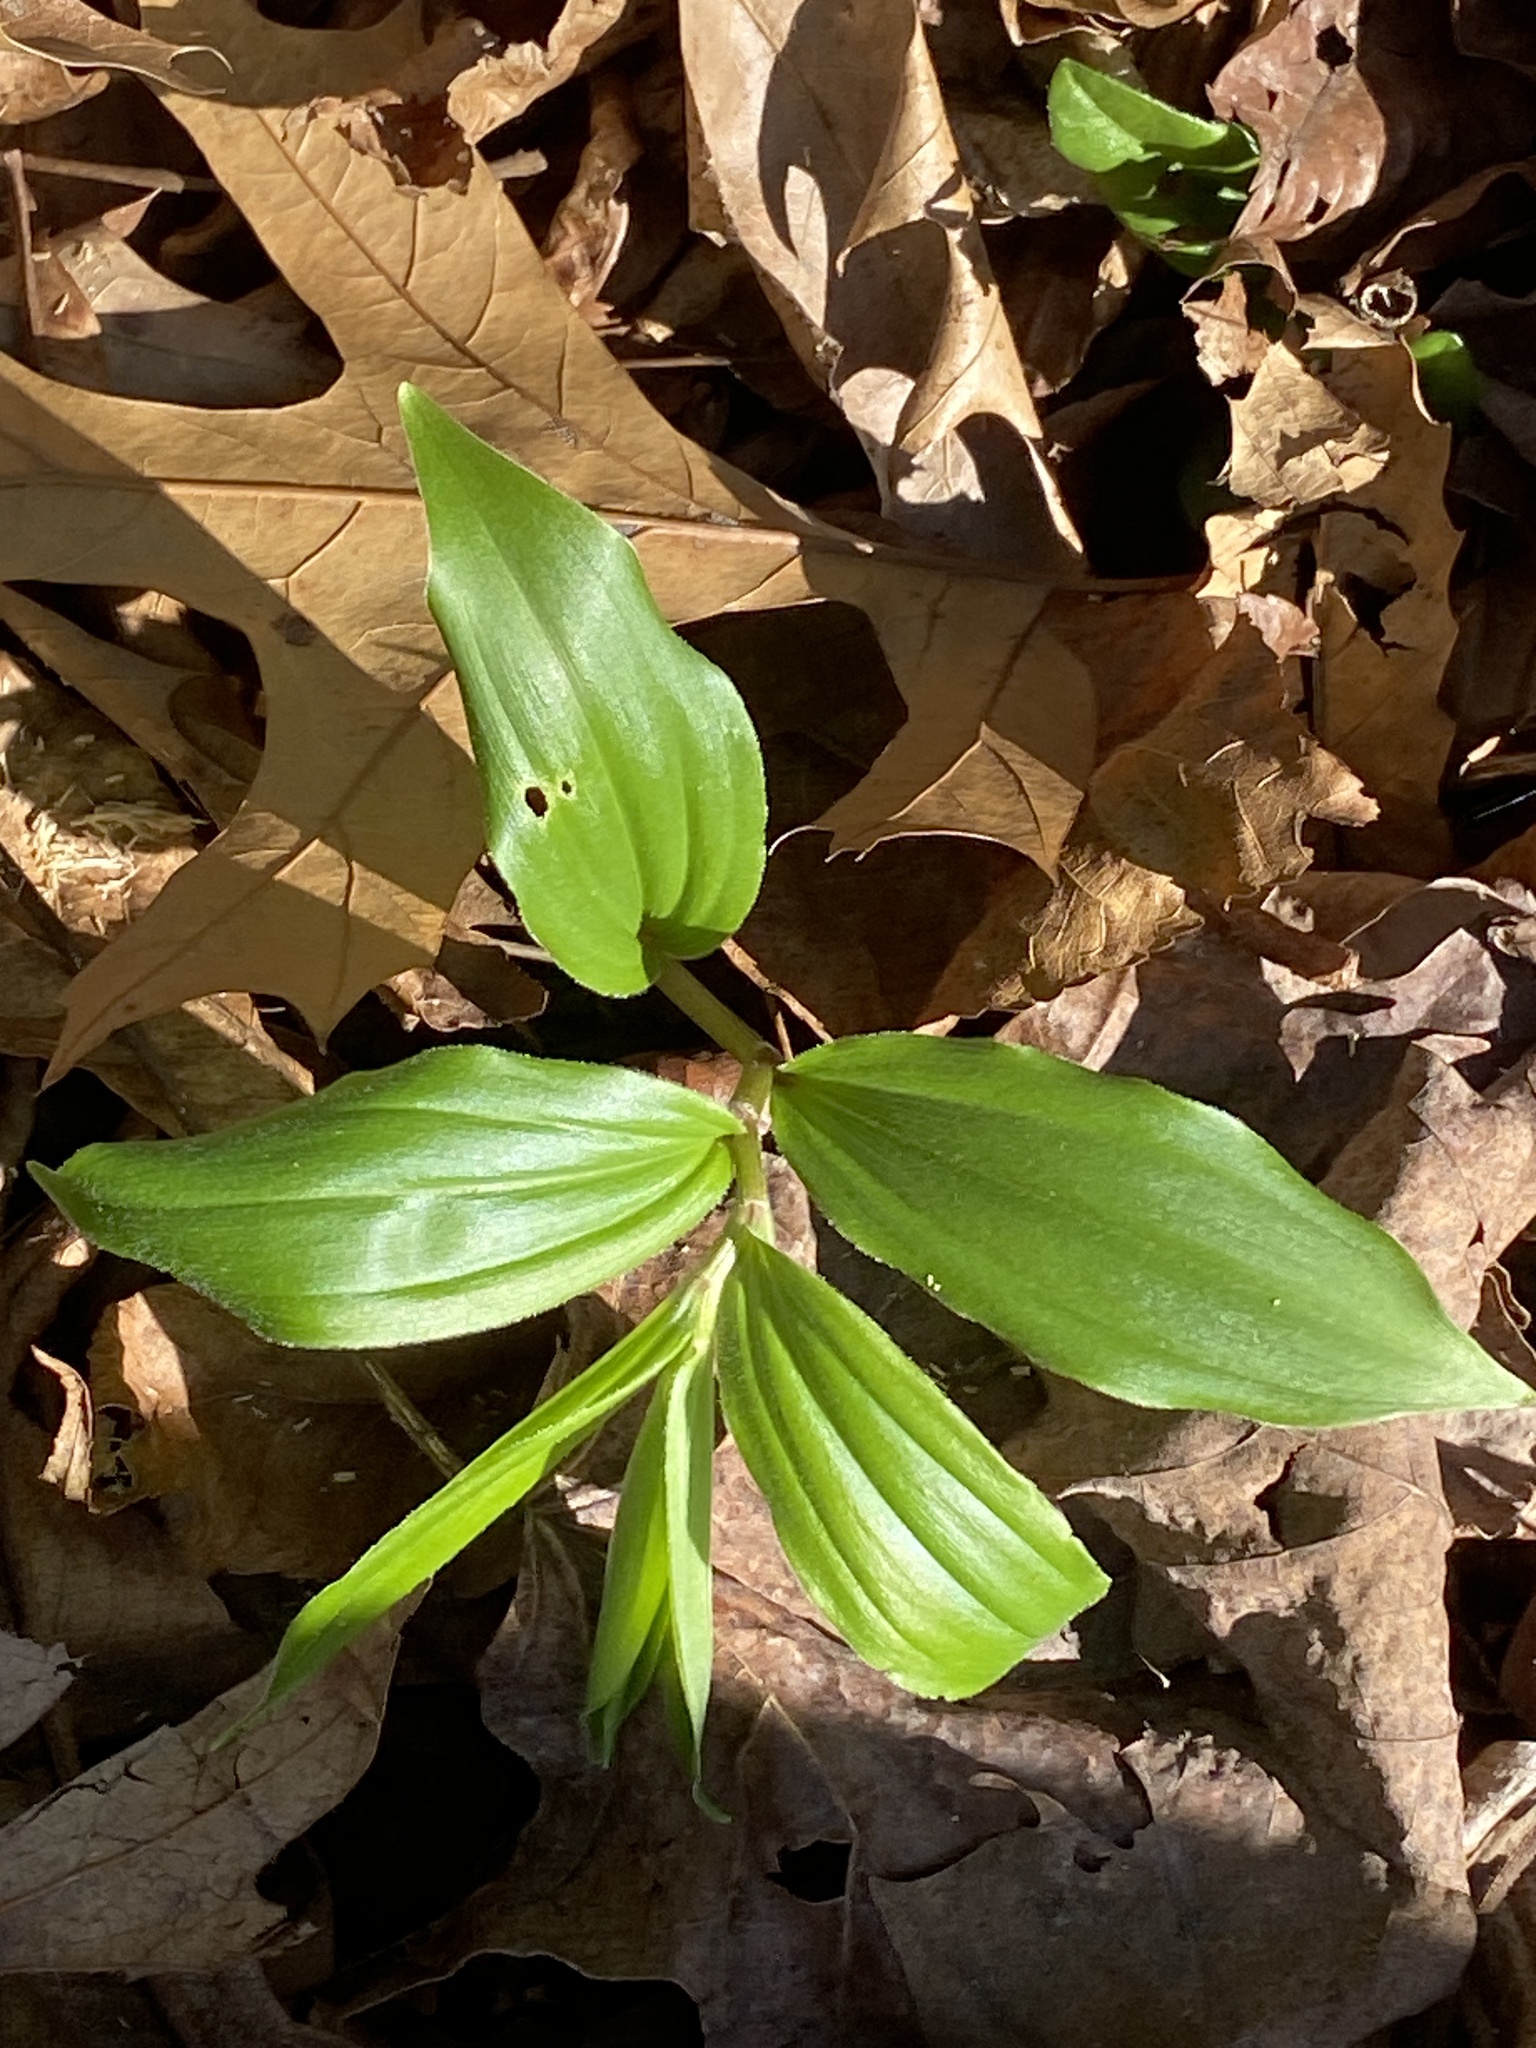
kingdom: Plantae
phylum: Tracheophyta
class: Liliopsida
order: Asparagales
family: Asparagaceae
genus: Maianthemum
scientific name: Maianthemum racemosum
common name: False spikenard
